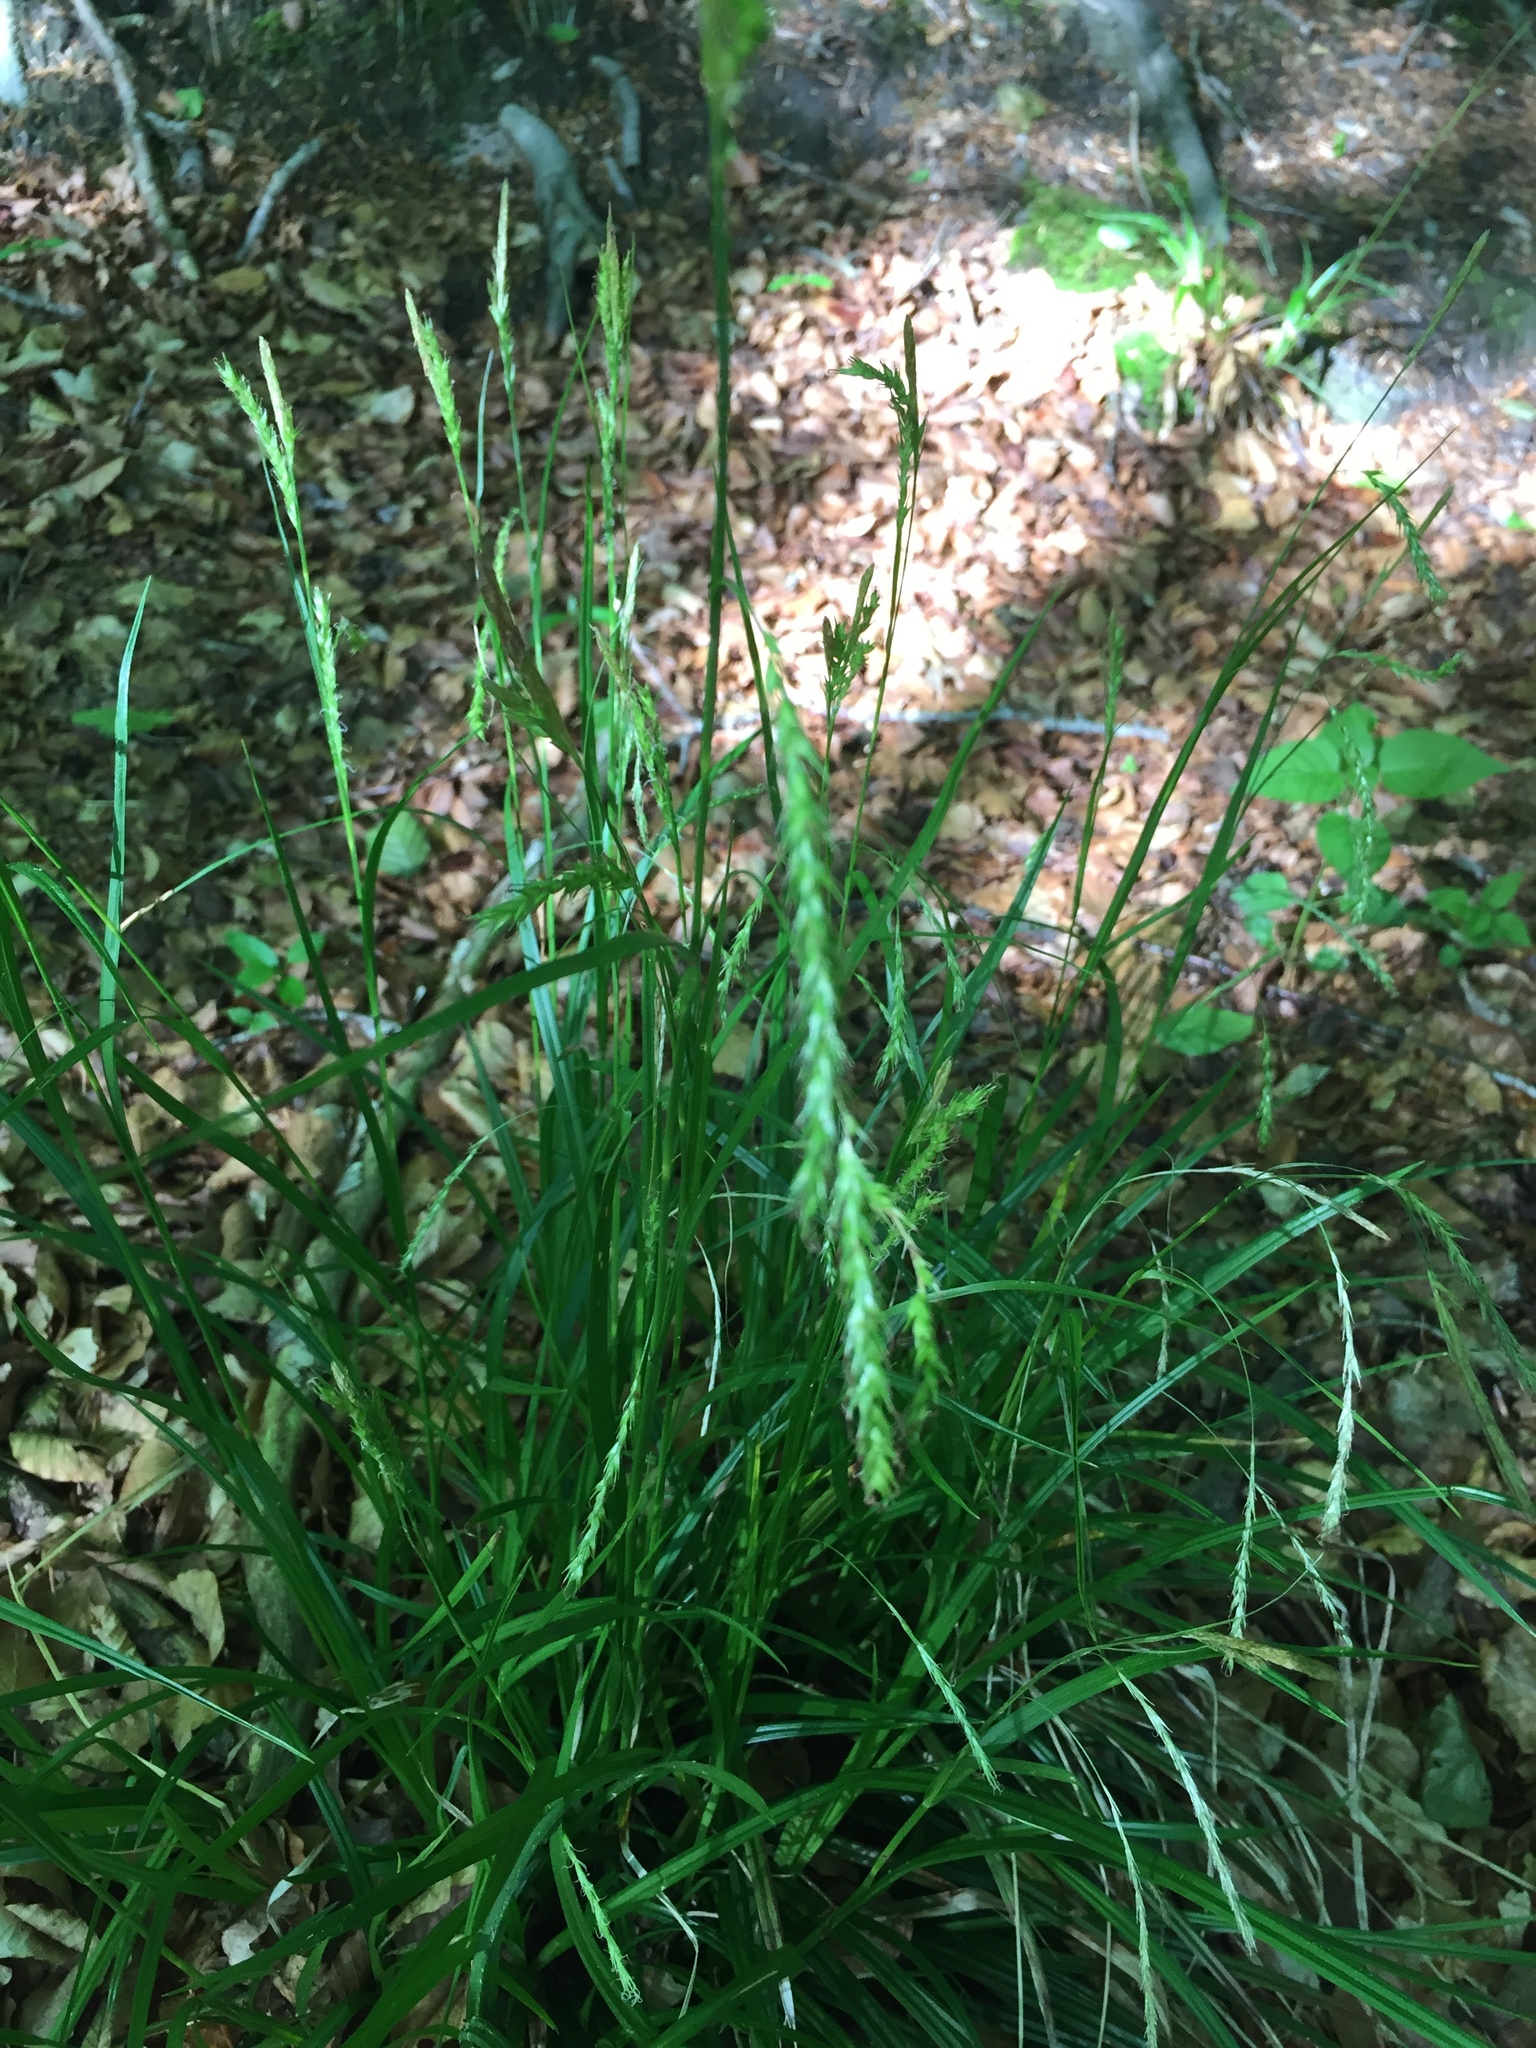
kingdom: Plantae
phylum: Tracheophyta
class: Liliopsida
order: Poales
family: Cyperaceae
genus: Carex
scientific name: Carex sylvatica
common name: Wood-sedge
